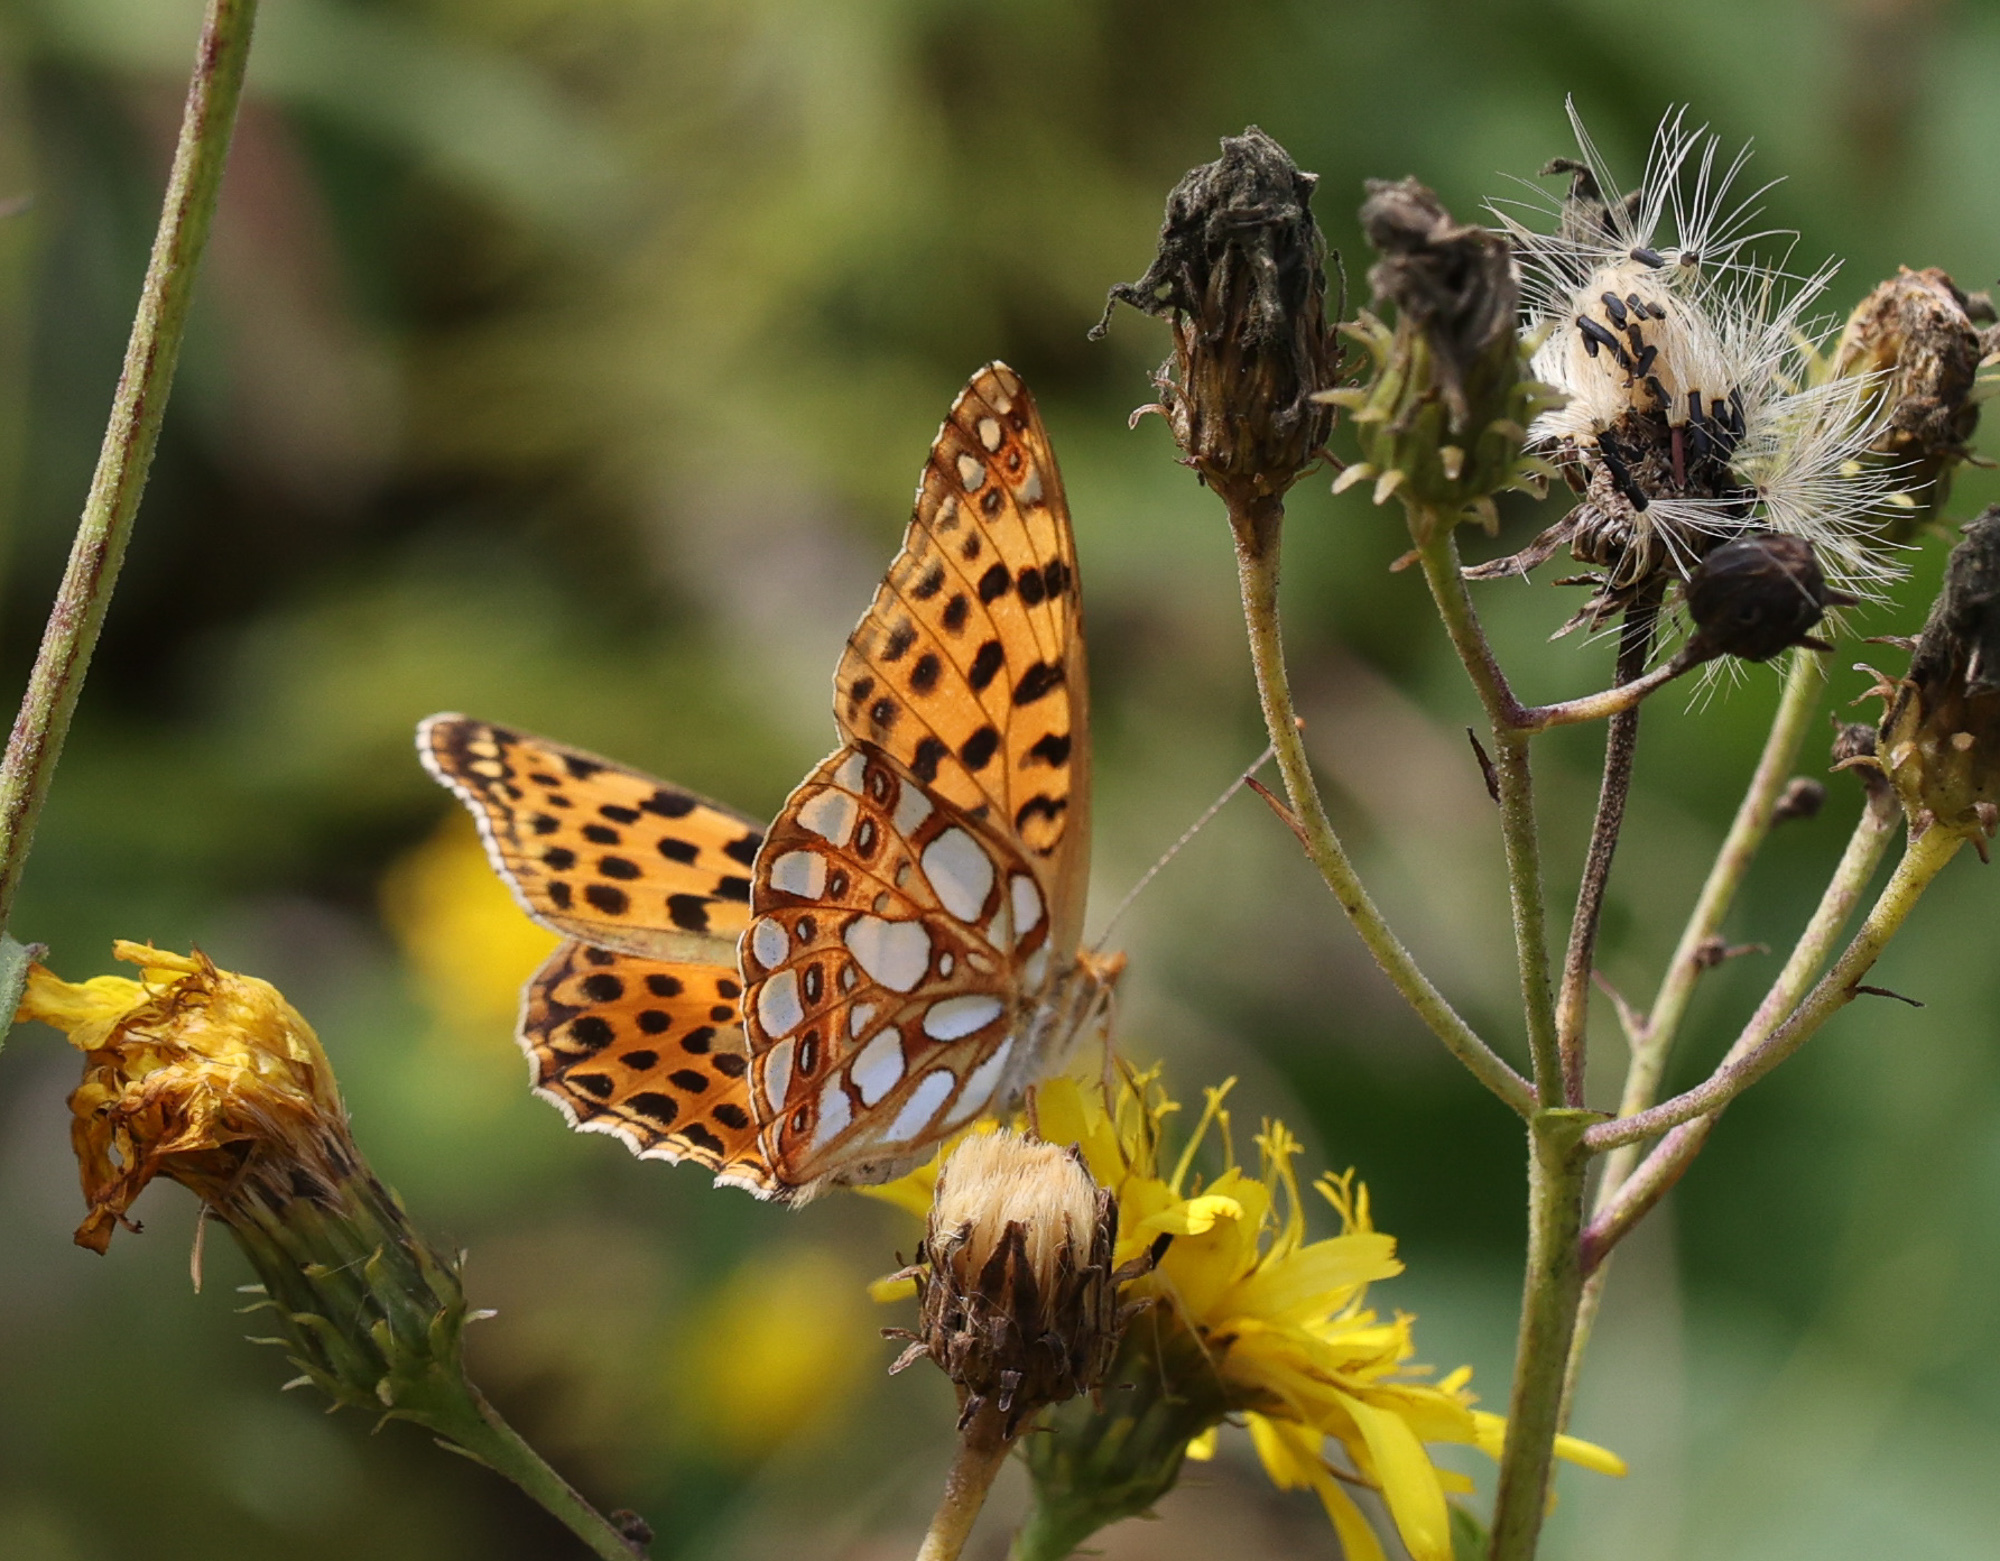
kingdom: Animalia
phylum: Arthropoda
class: Insecta
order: Lepidoptera
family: Nymphalidae
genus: Issoria
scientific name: Issoria lathonia
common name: Queen of spain fritillary
